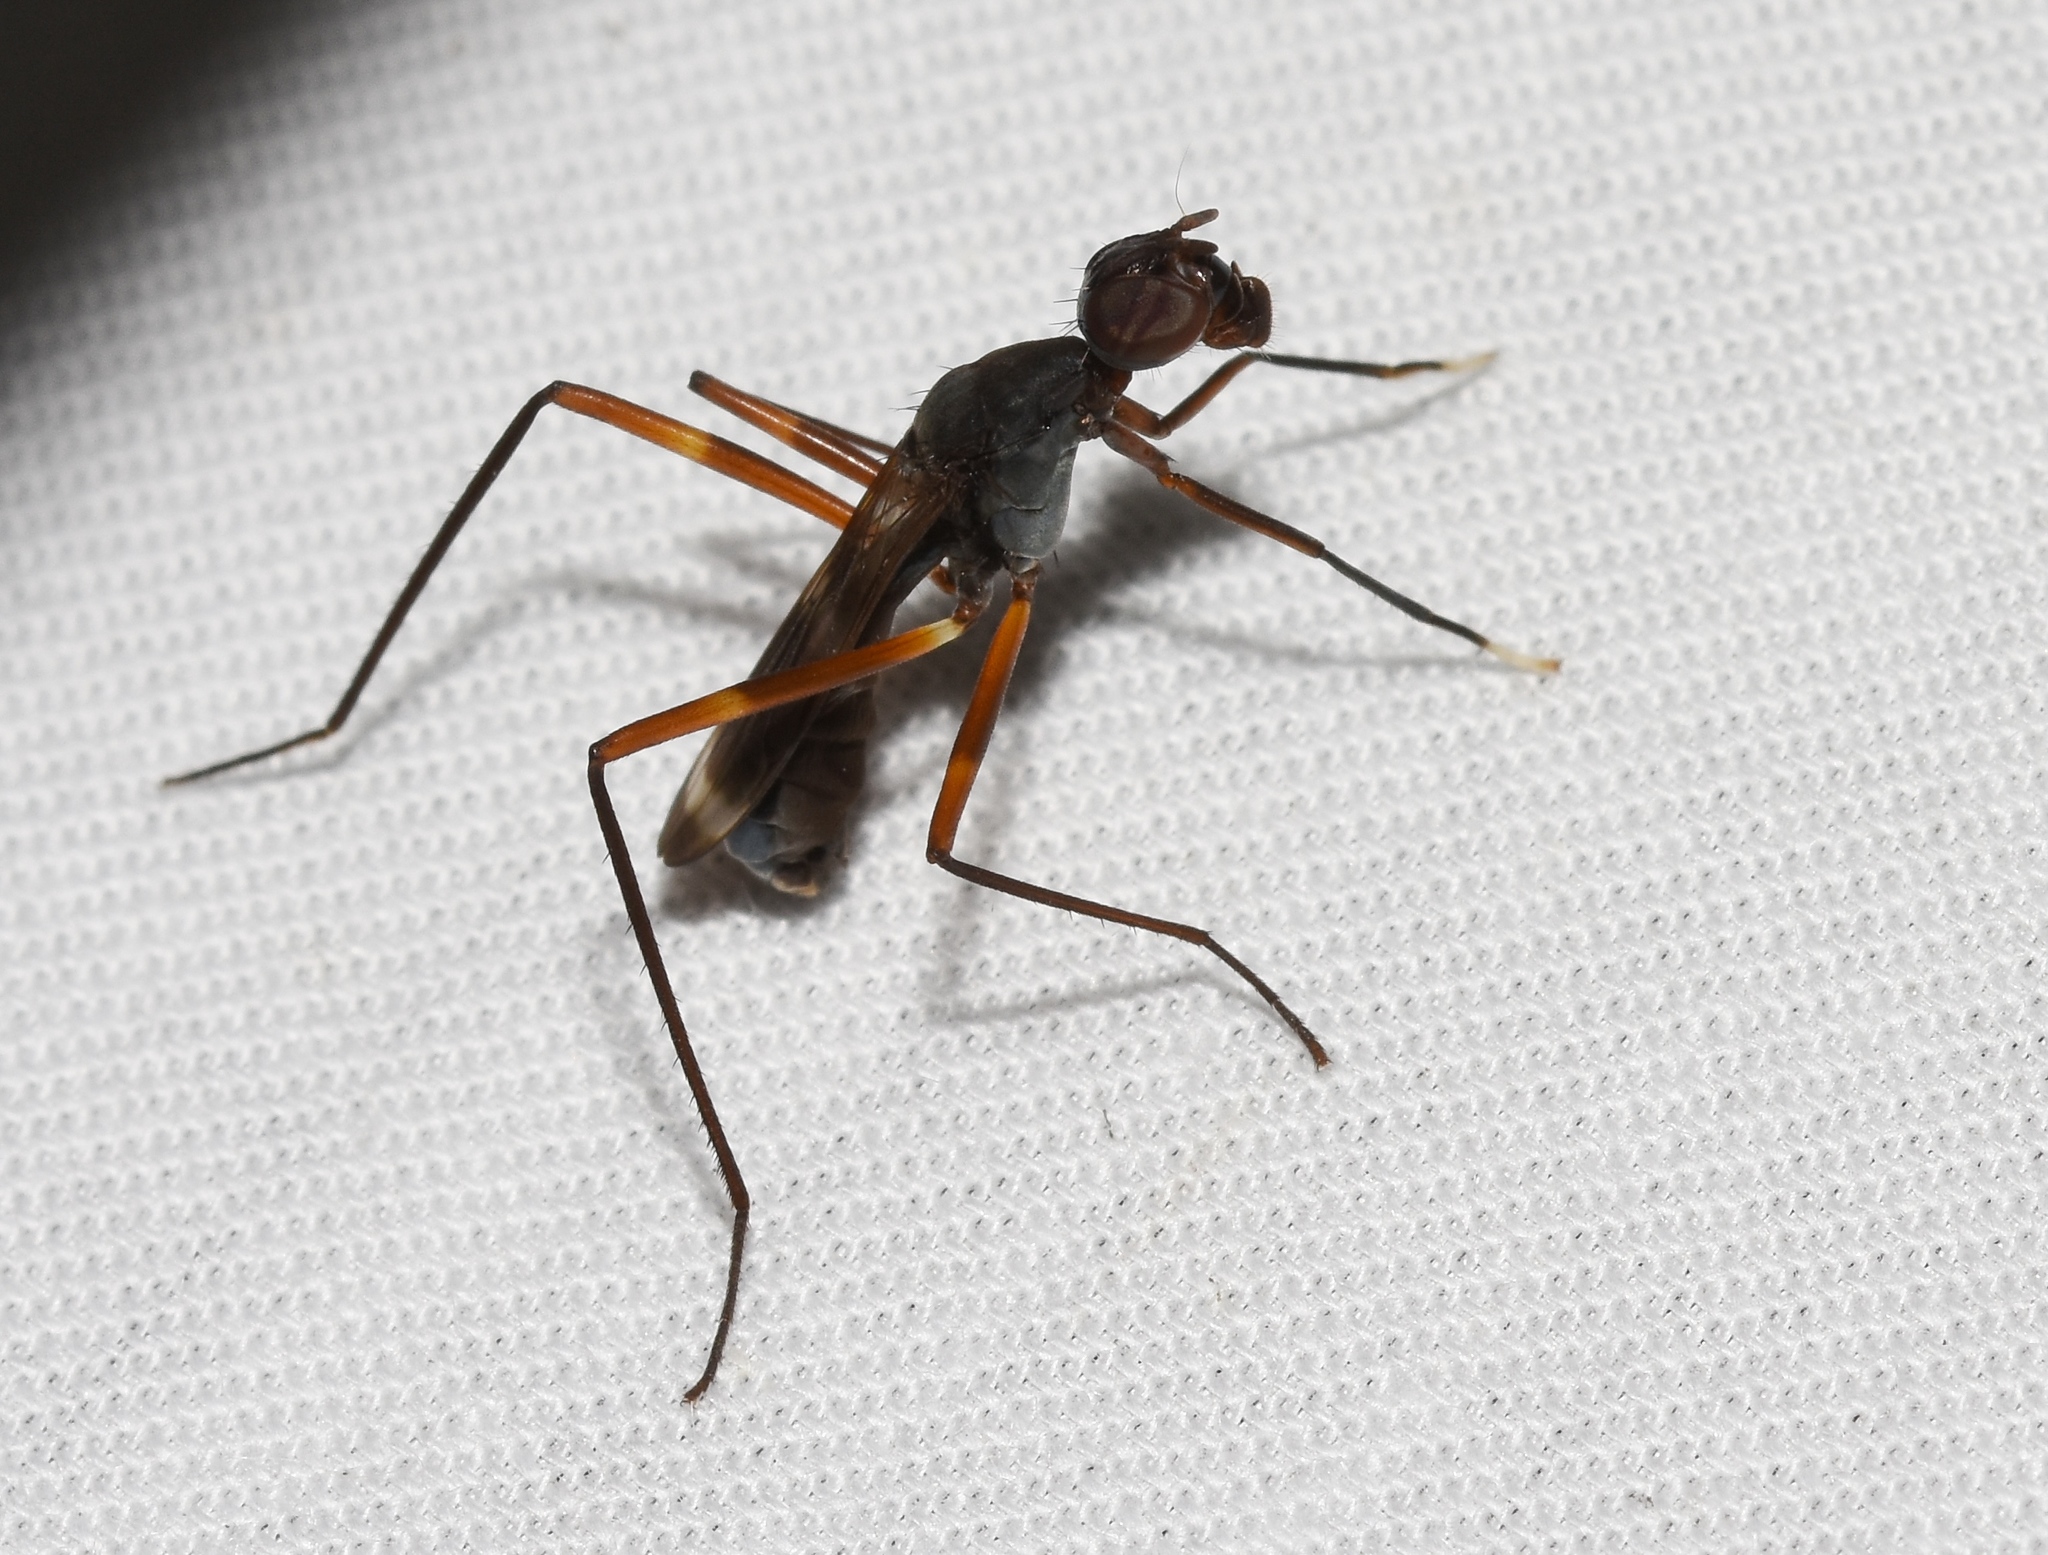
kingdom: Animalia
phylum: Arthropoda
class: Insecta
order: Diptera
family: Micropezidae
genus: Taeniaptera
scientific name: Taeniaptera trivittata
